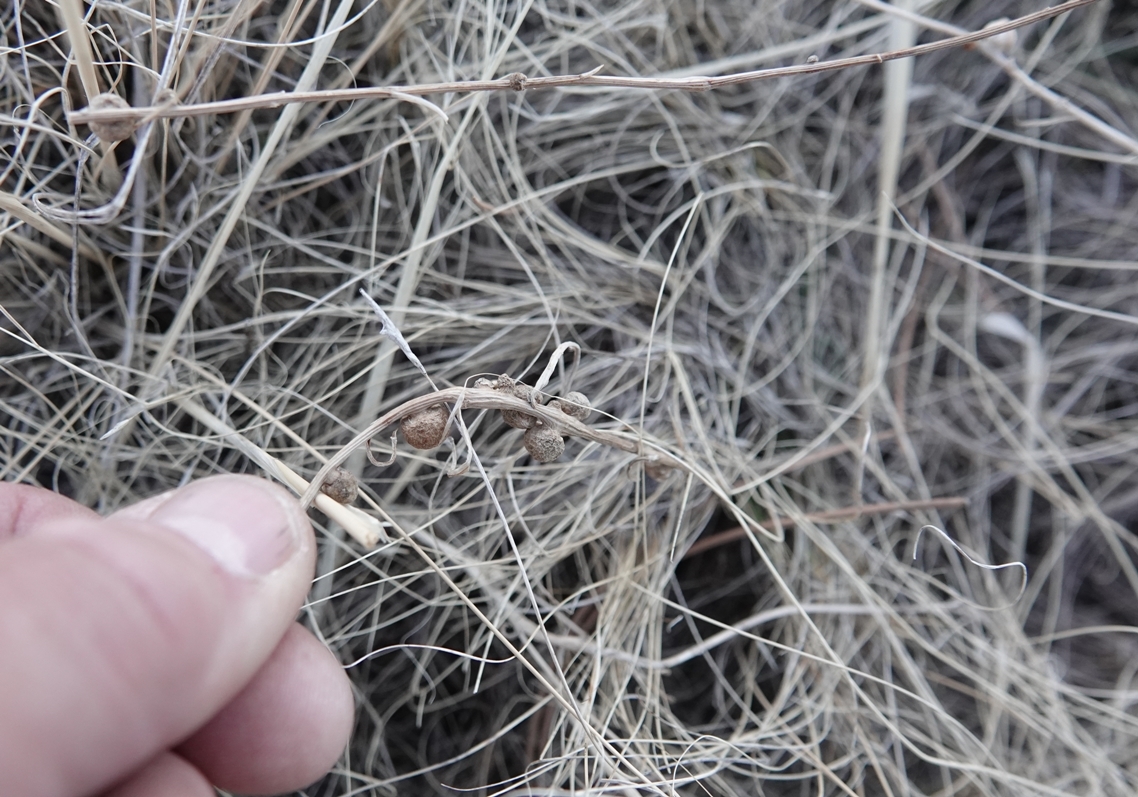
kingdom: Animalia
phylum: Arthropoda
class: Insecta
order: Hymenoptera
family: Cynipidae
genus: Antistrophus
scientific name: Antistrophus
